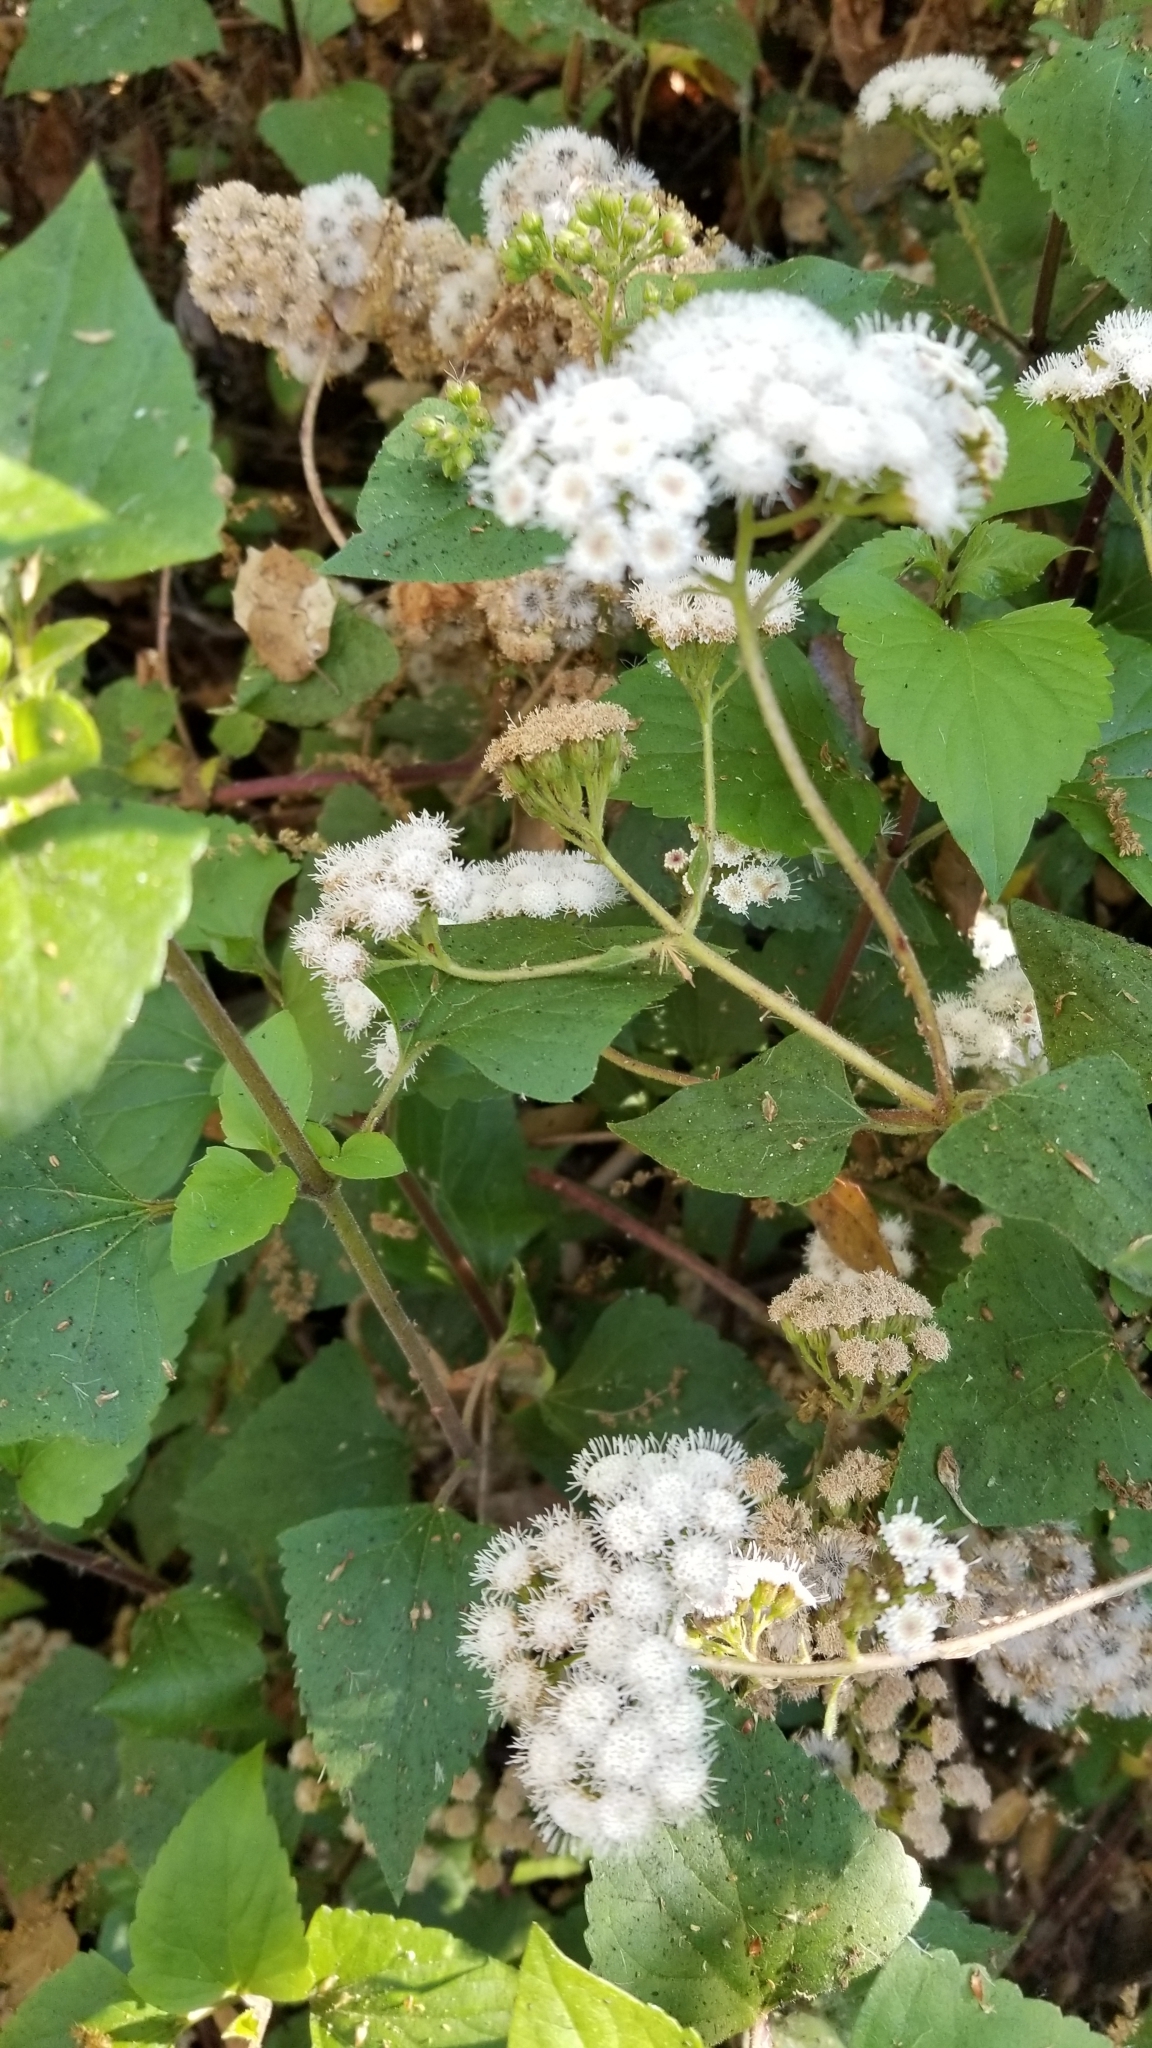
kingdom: Plantae
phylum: Tracheophyta
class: Magnoliopsida
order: Asterales
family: Asteraceae
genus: Ageratina
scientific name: Ageratina adenophora
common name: Sticky snakeroot
